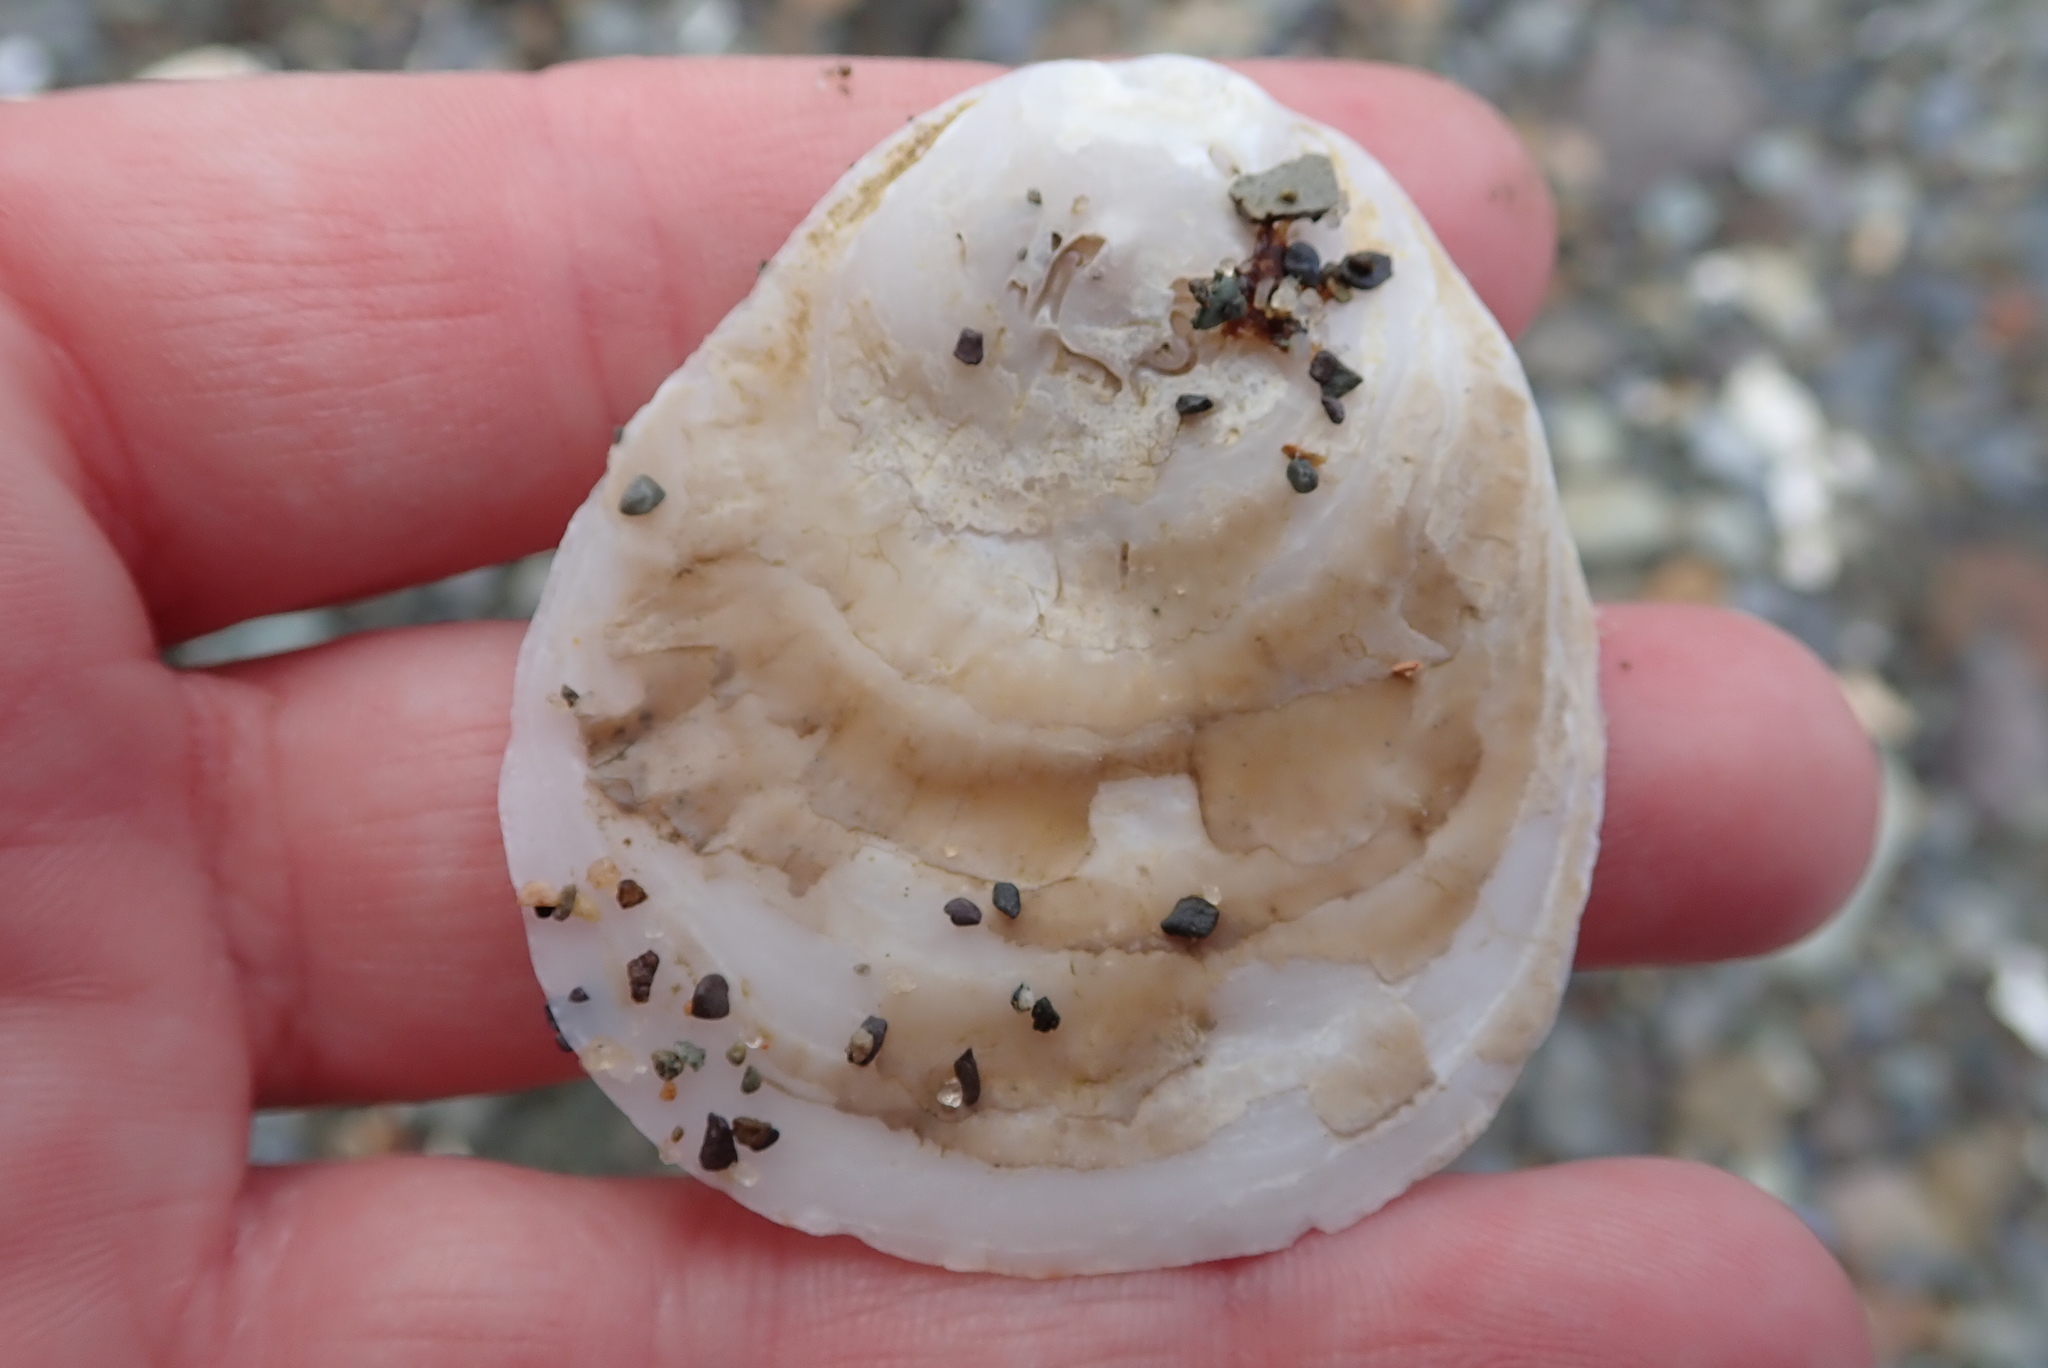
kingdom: Animalia
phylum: Mollusca
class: Bivalvia
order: Ostreida
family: Ostreidae
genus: Ostrea
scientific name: Ostrea edulis
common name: Flat oyster
